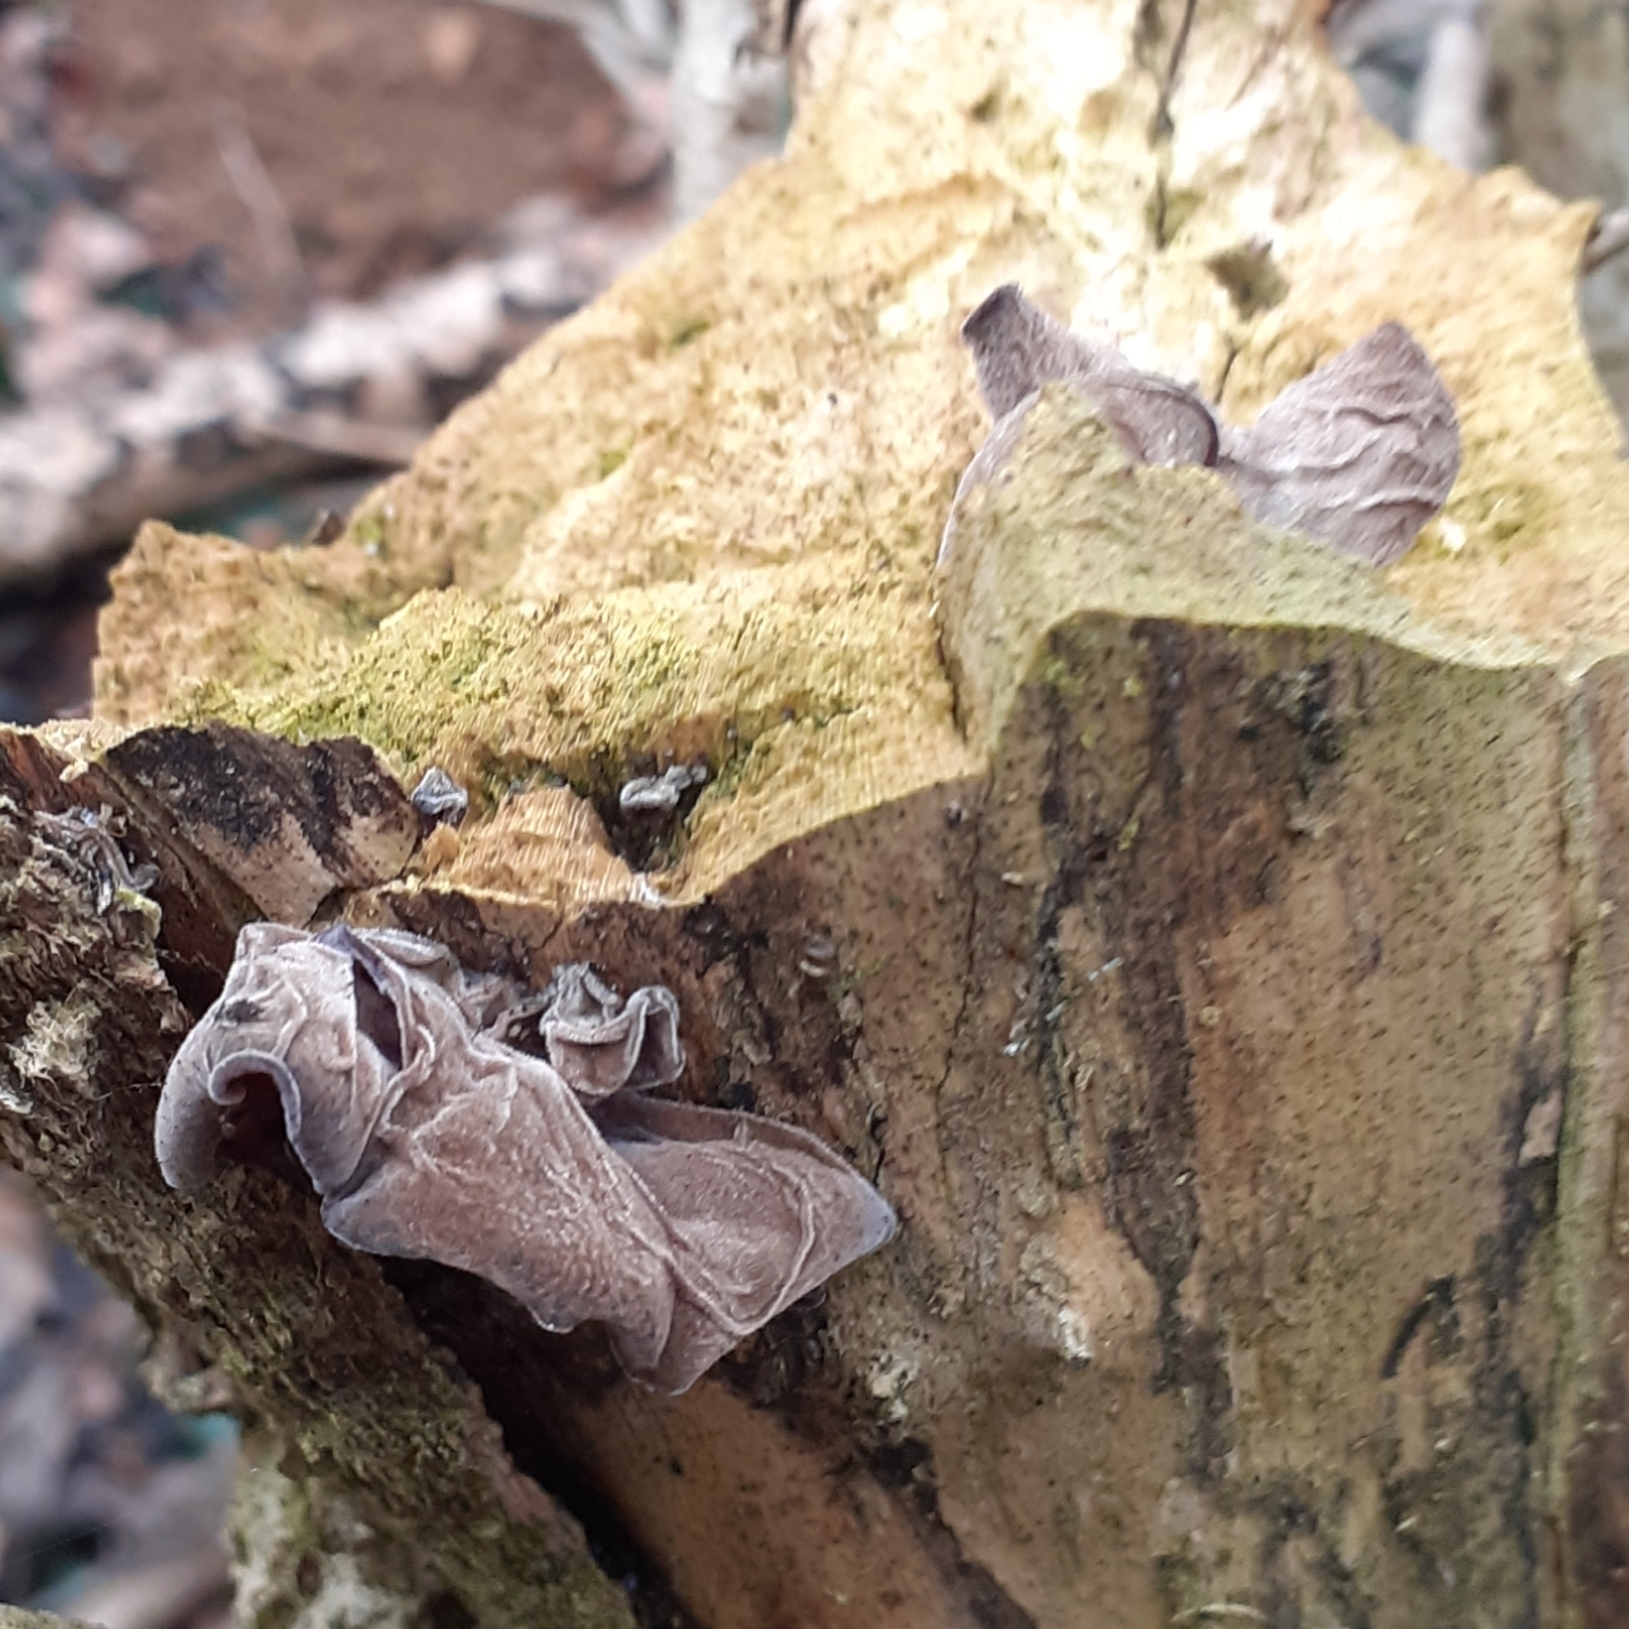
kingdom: Fungi
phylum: Basidiomycota
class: Agaricomycetes
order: Auriculariales
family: Auriculariaceae
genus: Auricularia
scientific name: Auricularia auricula-judae
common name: Jelly ear
